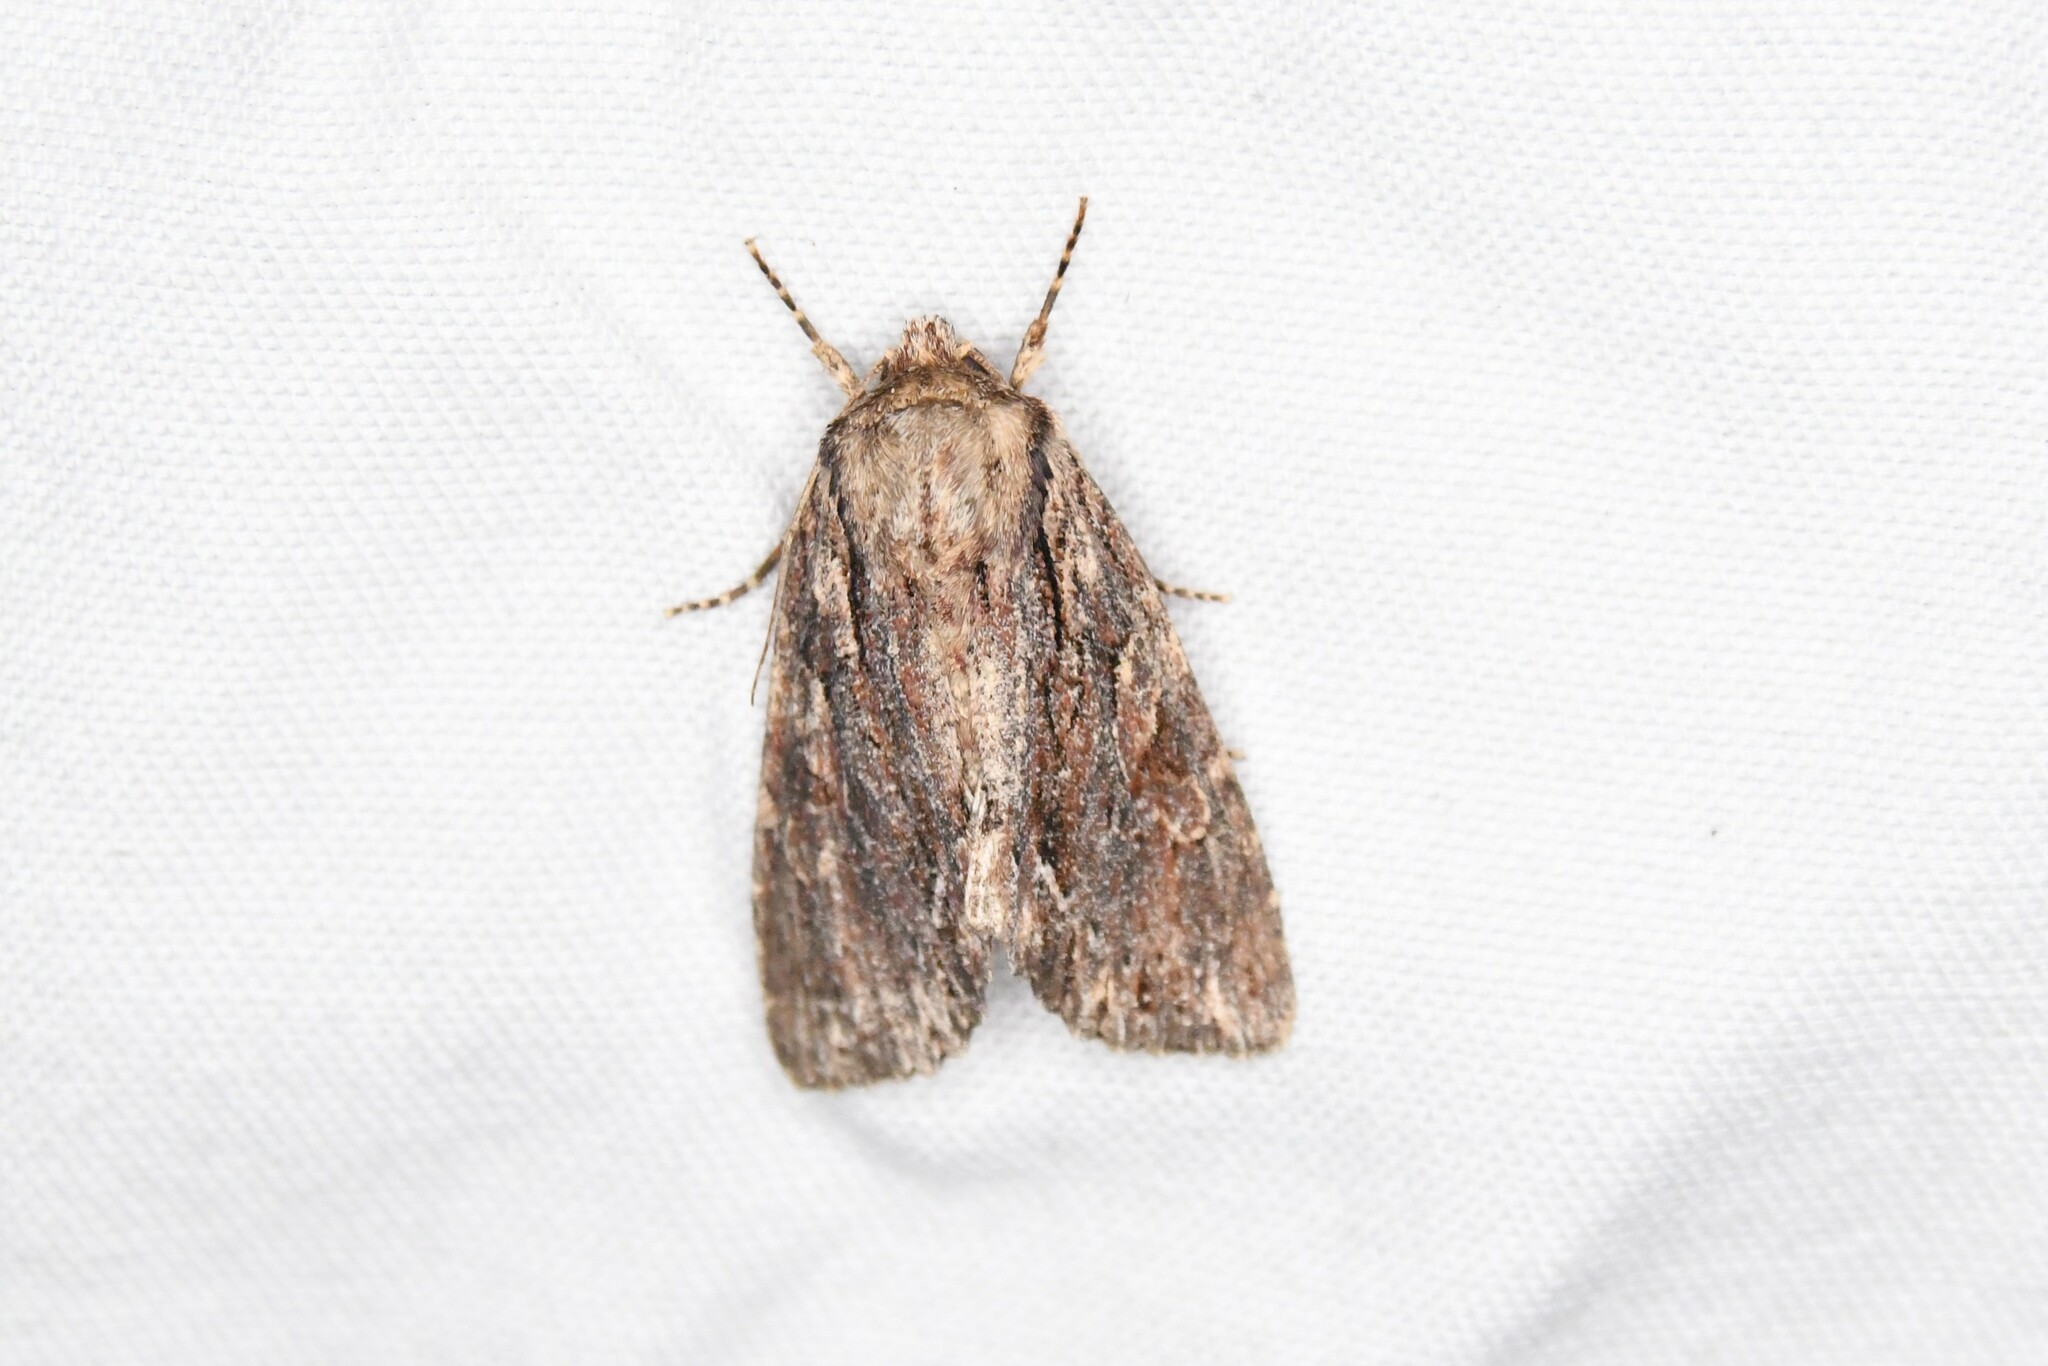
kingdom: Animalia
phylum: Arthropoda
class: Insecta
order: Lepidoptera
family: Noctuidae
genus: Achatia
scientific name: Achatia confusa
